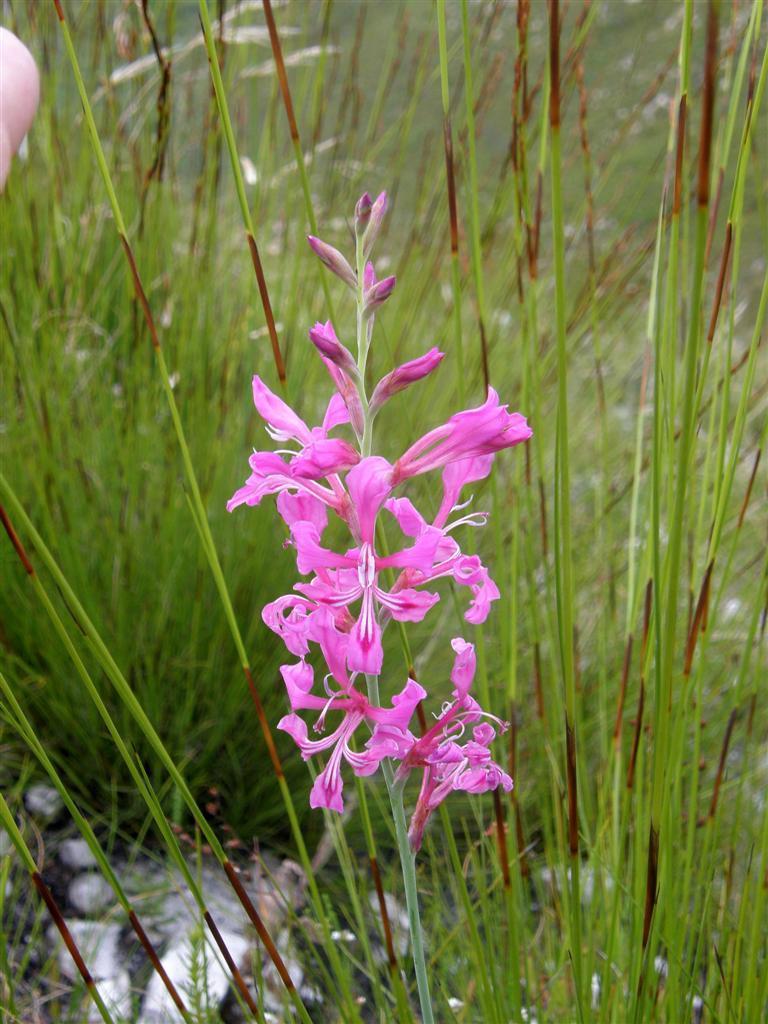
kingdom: Plantae
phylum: Tracheophyta
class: Liliopsida
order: Asparagales
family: Iridaceae
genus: Tritoniopsis
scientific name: Tritoniopsis lata
